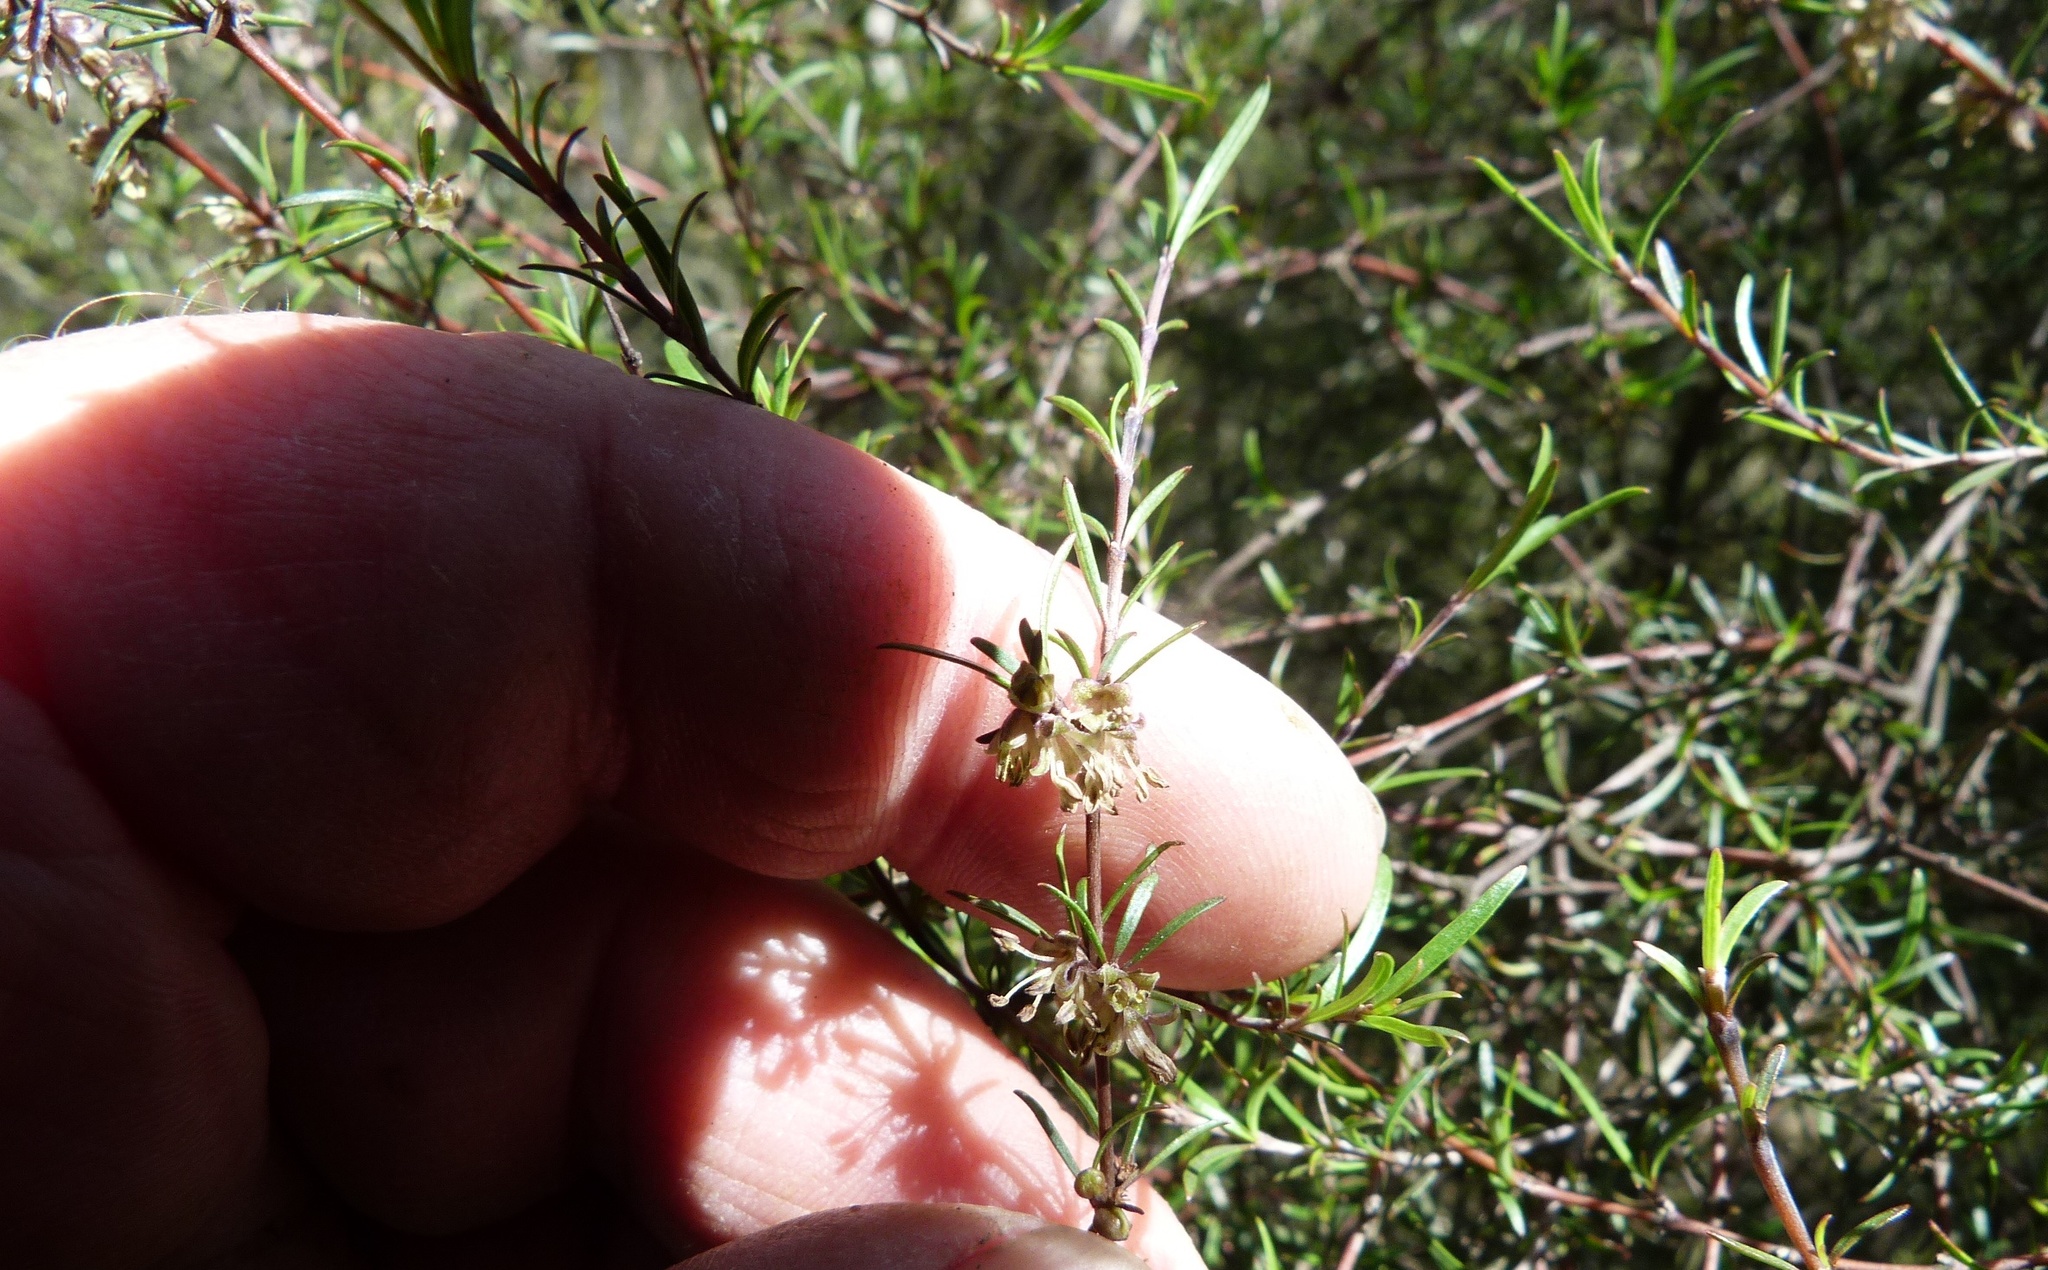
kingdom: Plantae
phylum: Tracheophyta
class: Magnoliopsida
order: Gentianales
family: Rubiaceae
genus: Coprosma
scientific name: Coprosma intertexta
